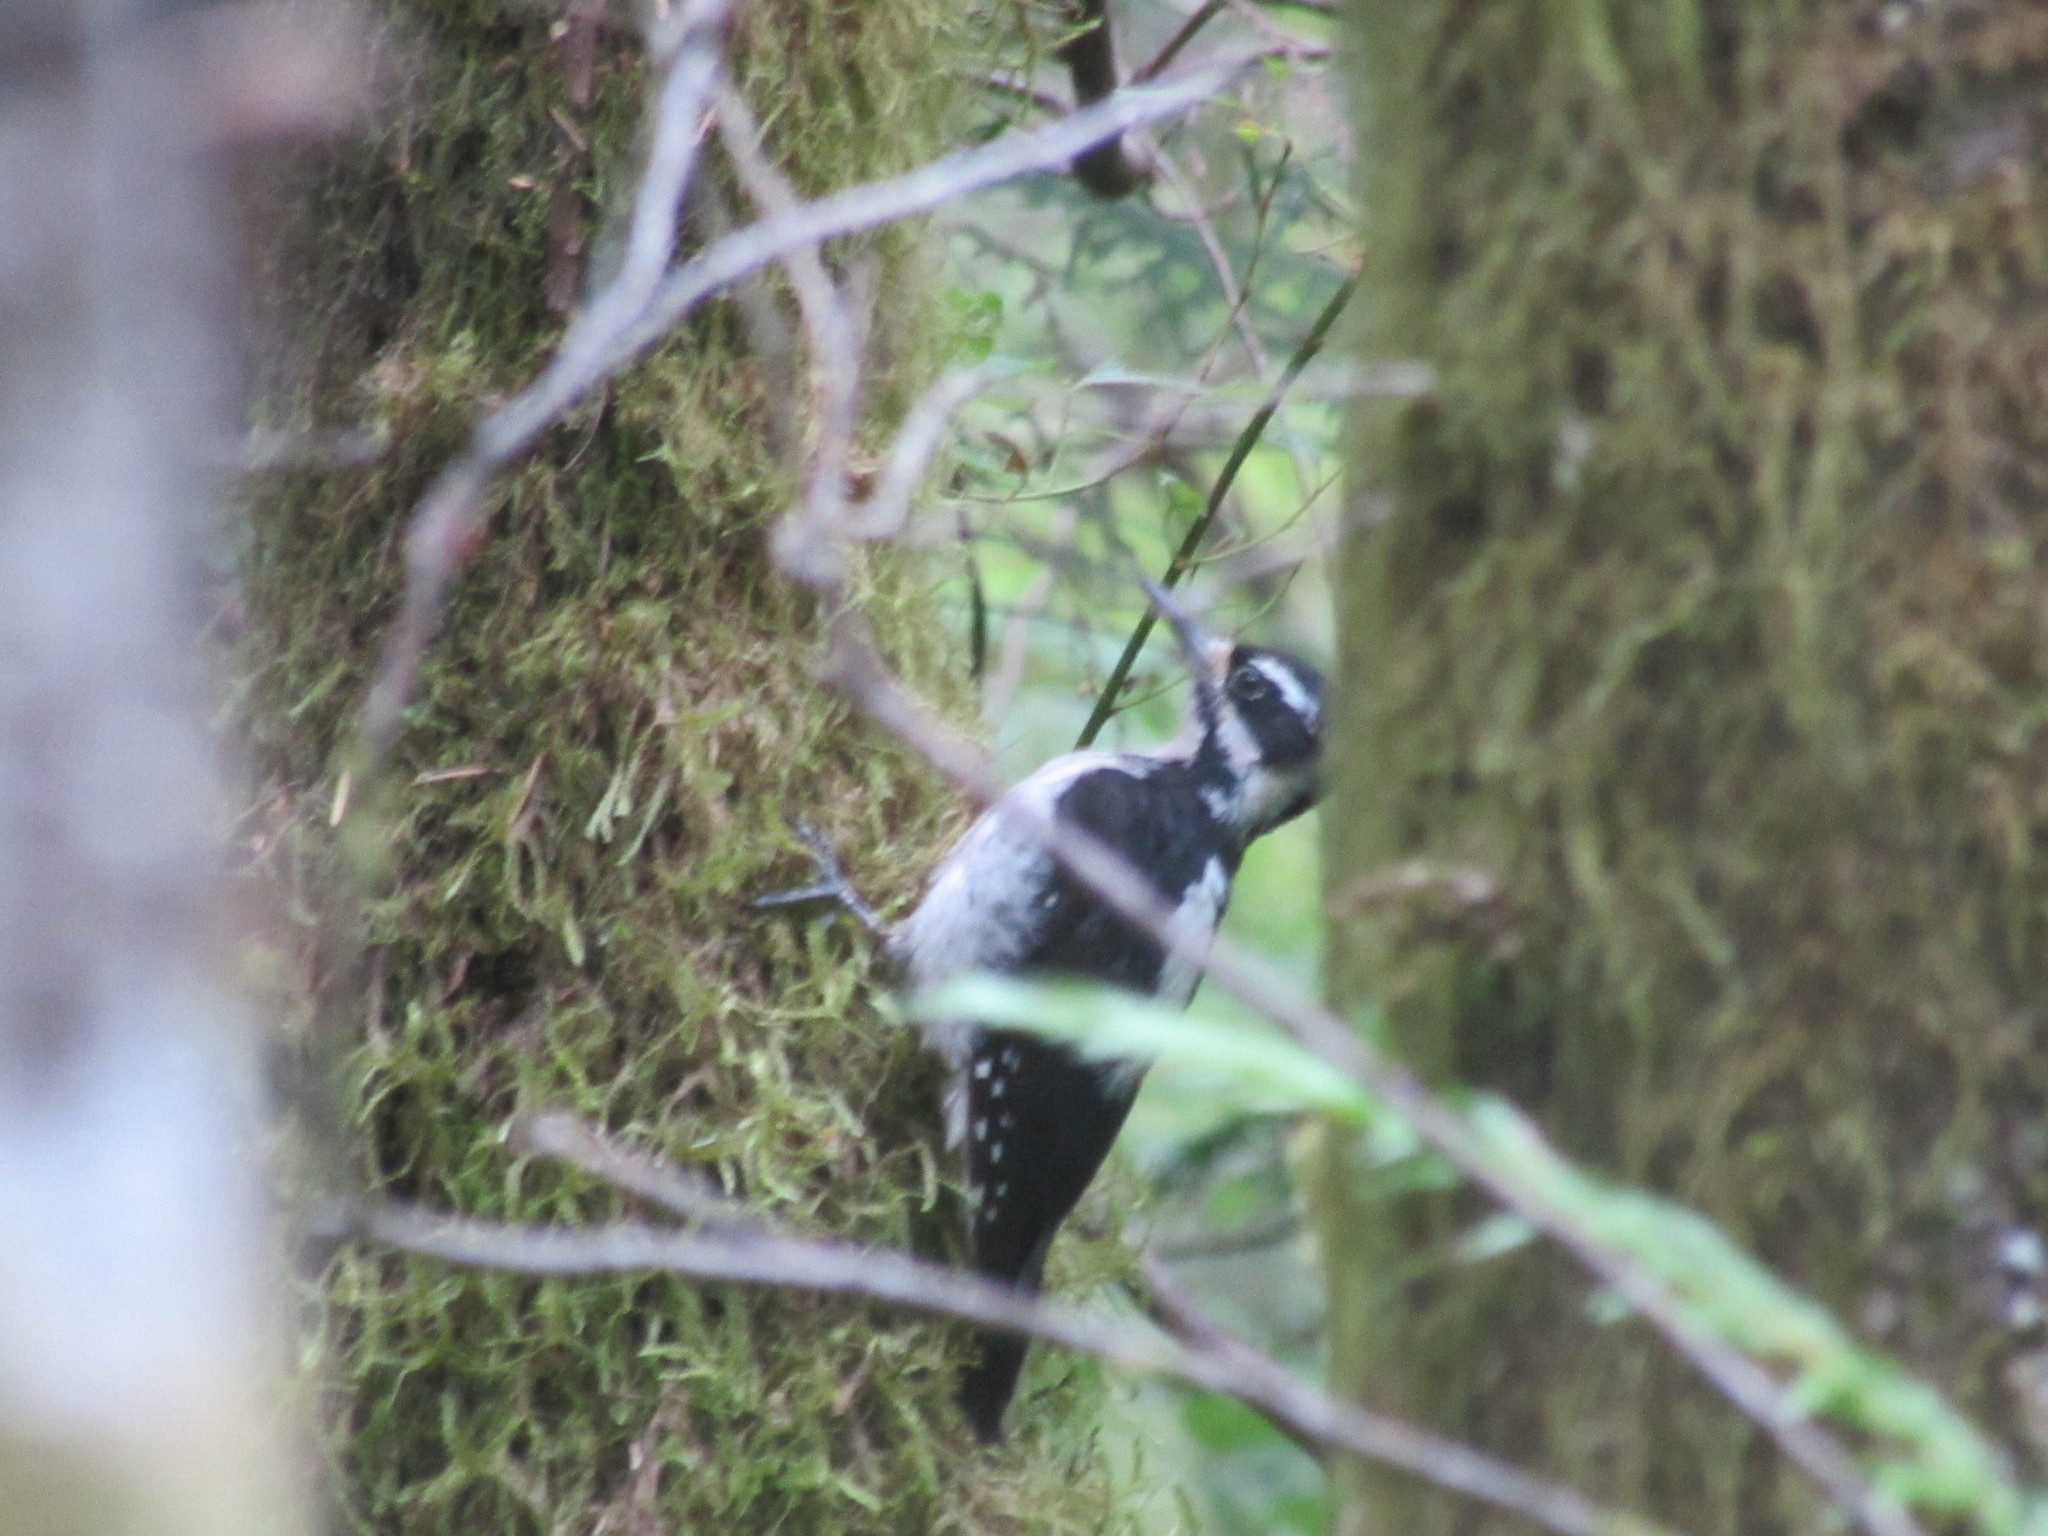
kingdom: Animalia
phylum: Chordata
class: Aves
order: Piciformes
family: Picidae
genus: Leuconotopicus
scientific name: Leuconotopicus villosus
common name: Hairy woodpecker
